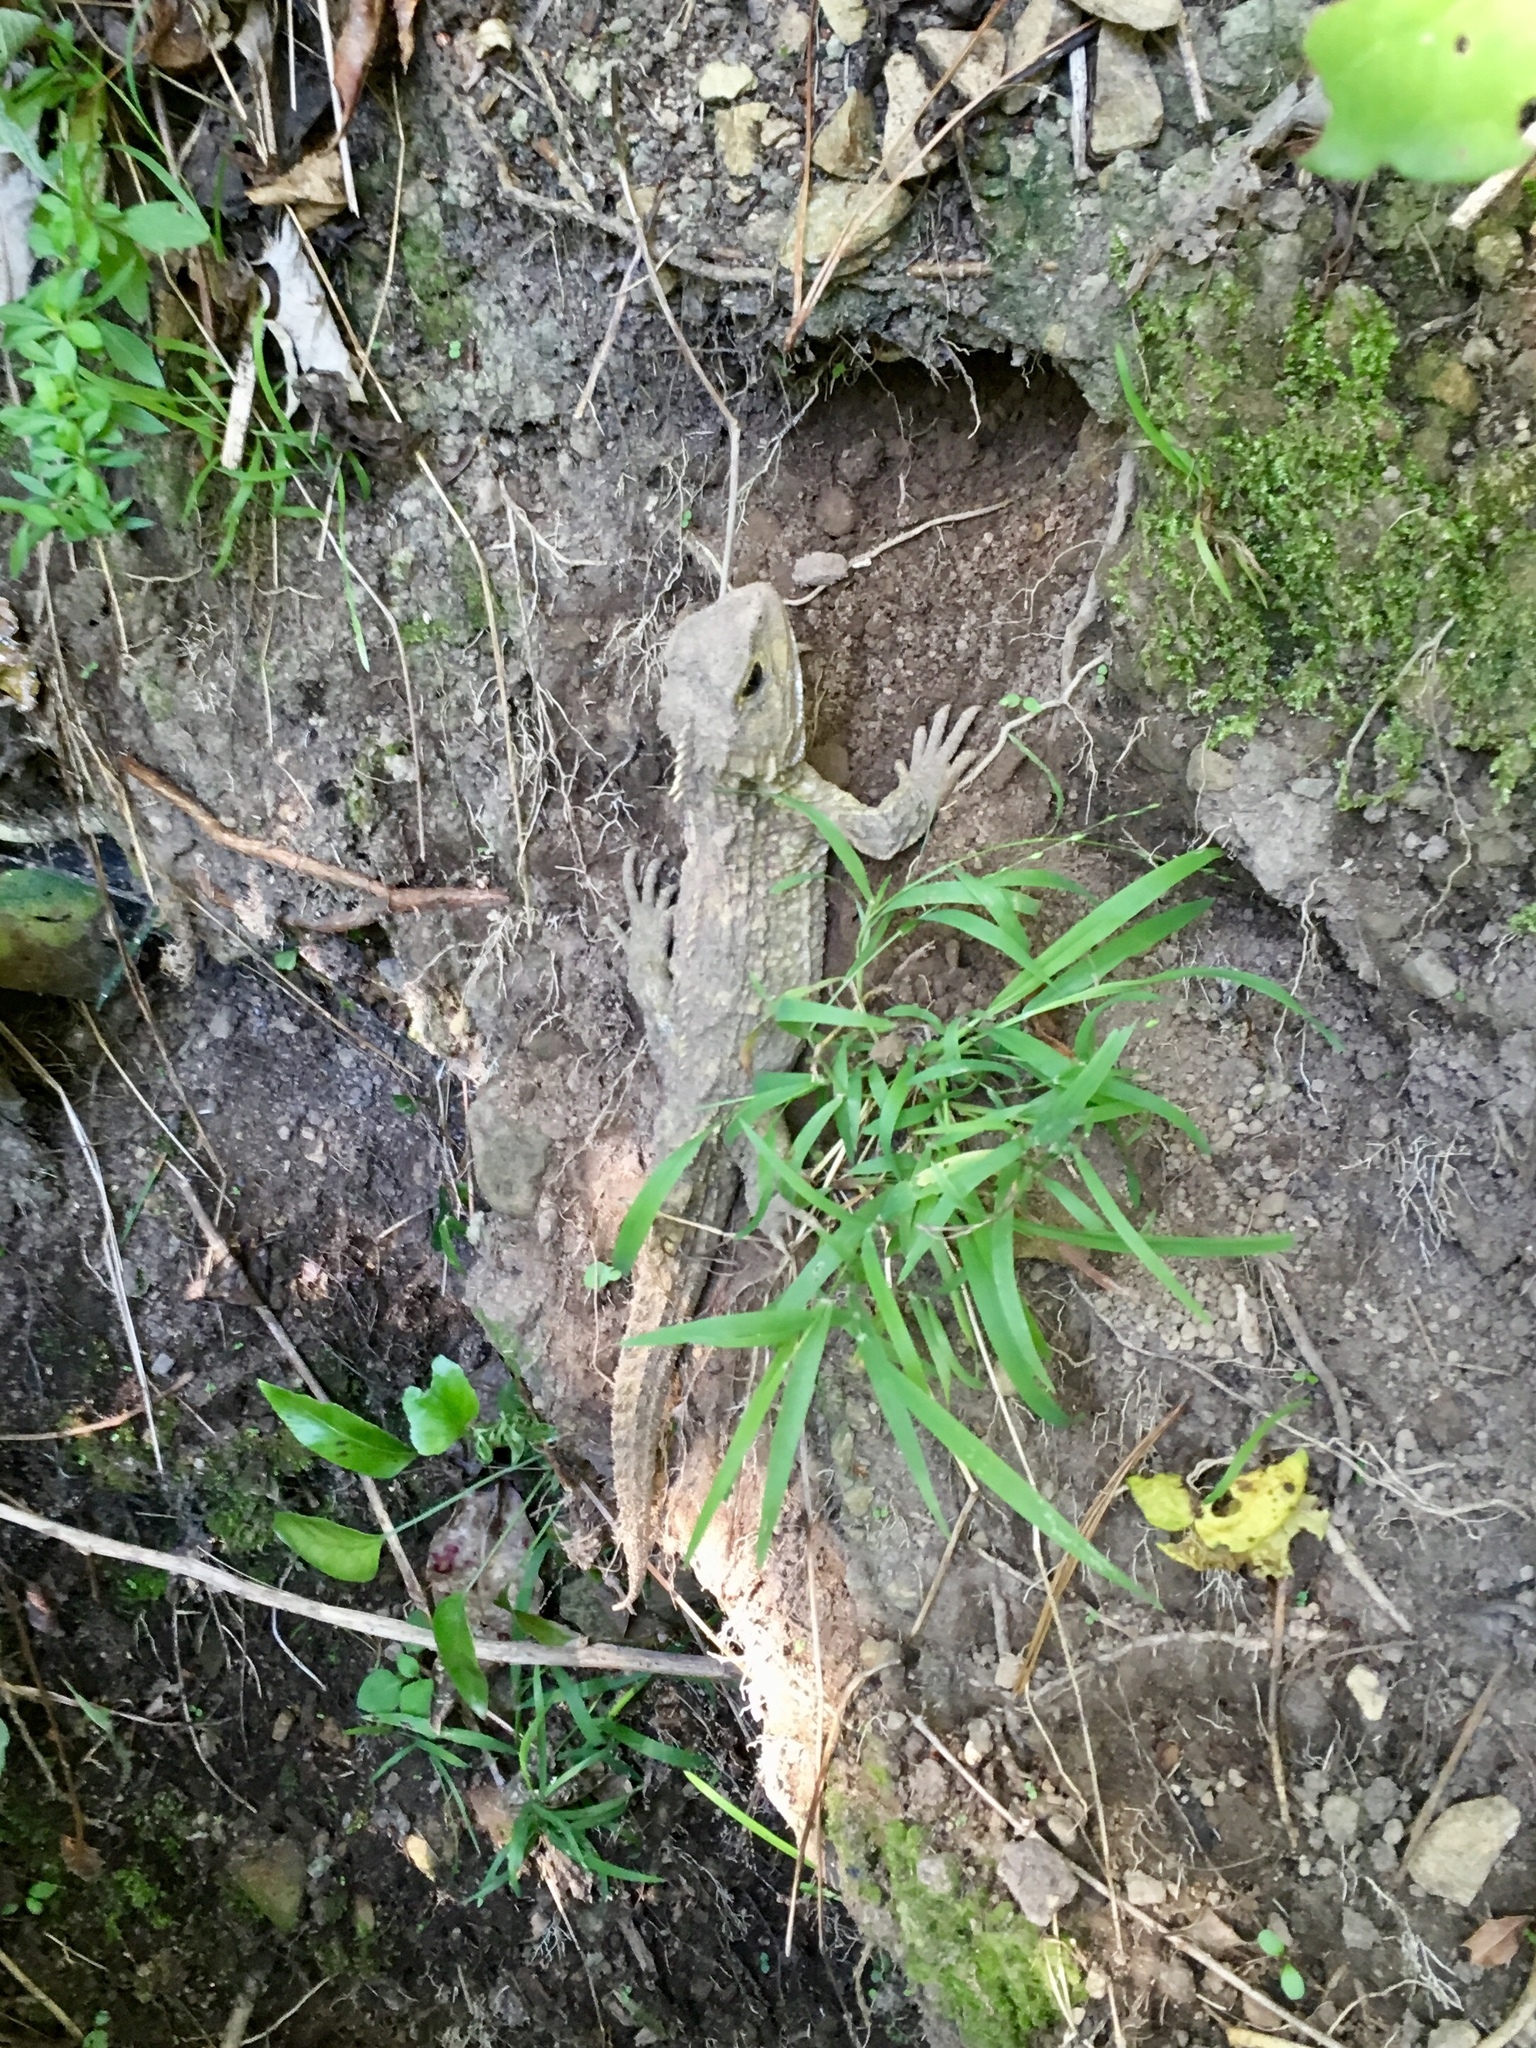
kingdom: Animalia
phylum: Chordata
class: Sphenodontia
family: Sphenodontidae
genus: Sphenodon
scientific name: Sphenodon punctatus
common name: Tuatara
